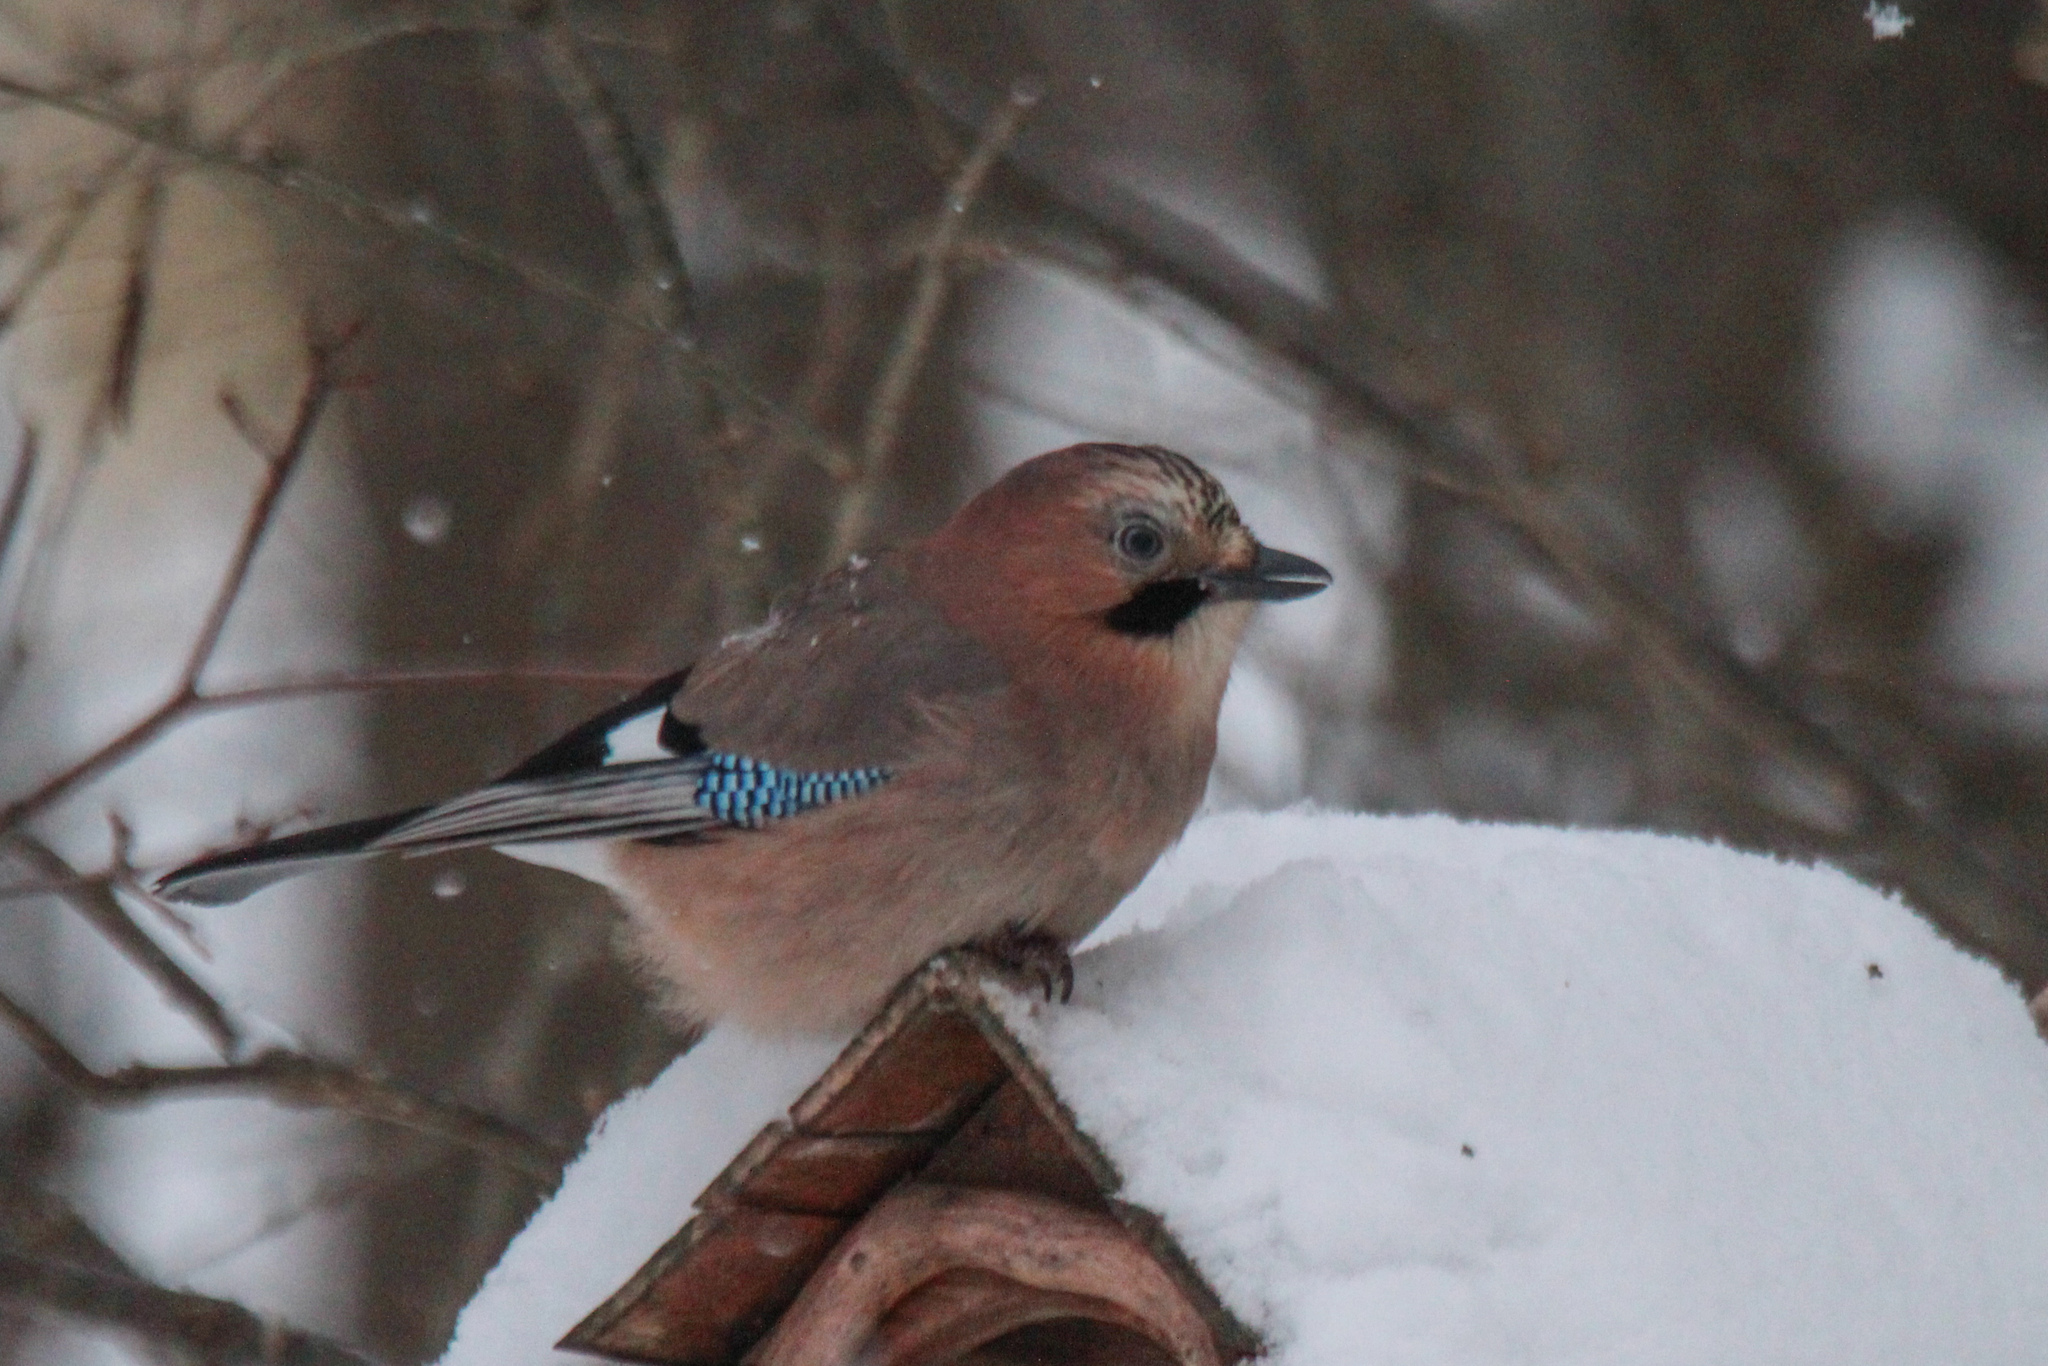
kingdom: Animalia
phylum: Chordata
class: Aves
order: Passeriformes
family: Corvidae
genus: Garrulus
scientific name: Garrulus glandarius
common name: Eurasian jay
